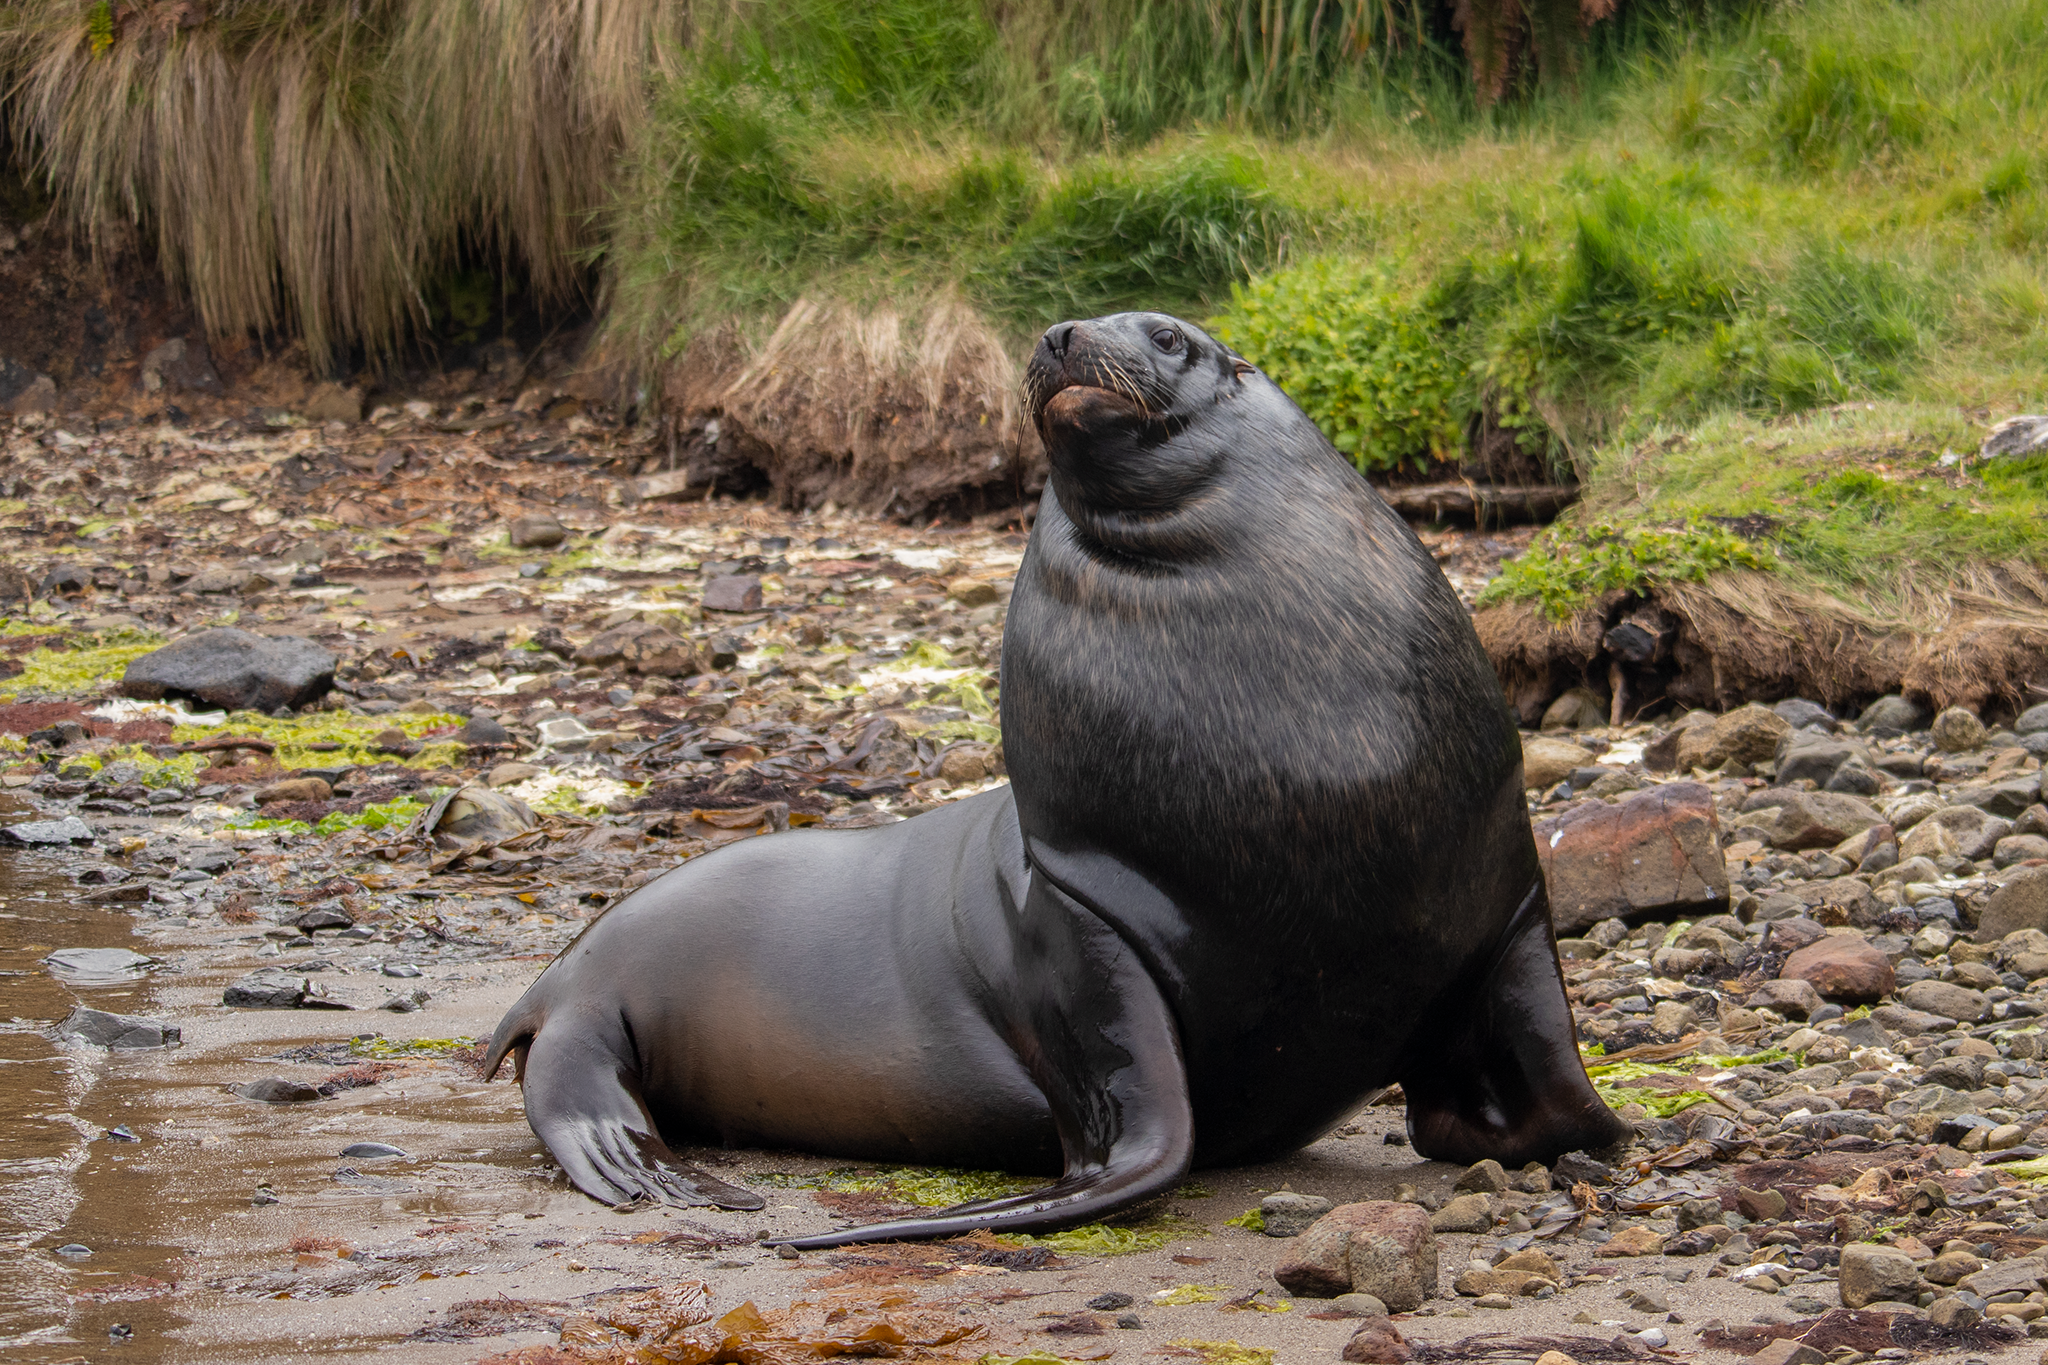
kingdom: Animalia
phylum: Chordata
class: Mammalia
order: Carnivora
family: Otariidae
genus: Phocarctos
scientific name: Phocarctos hookeri
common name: New zealand sea lion
